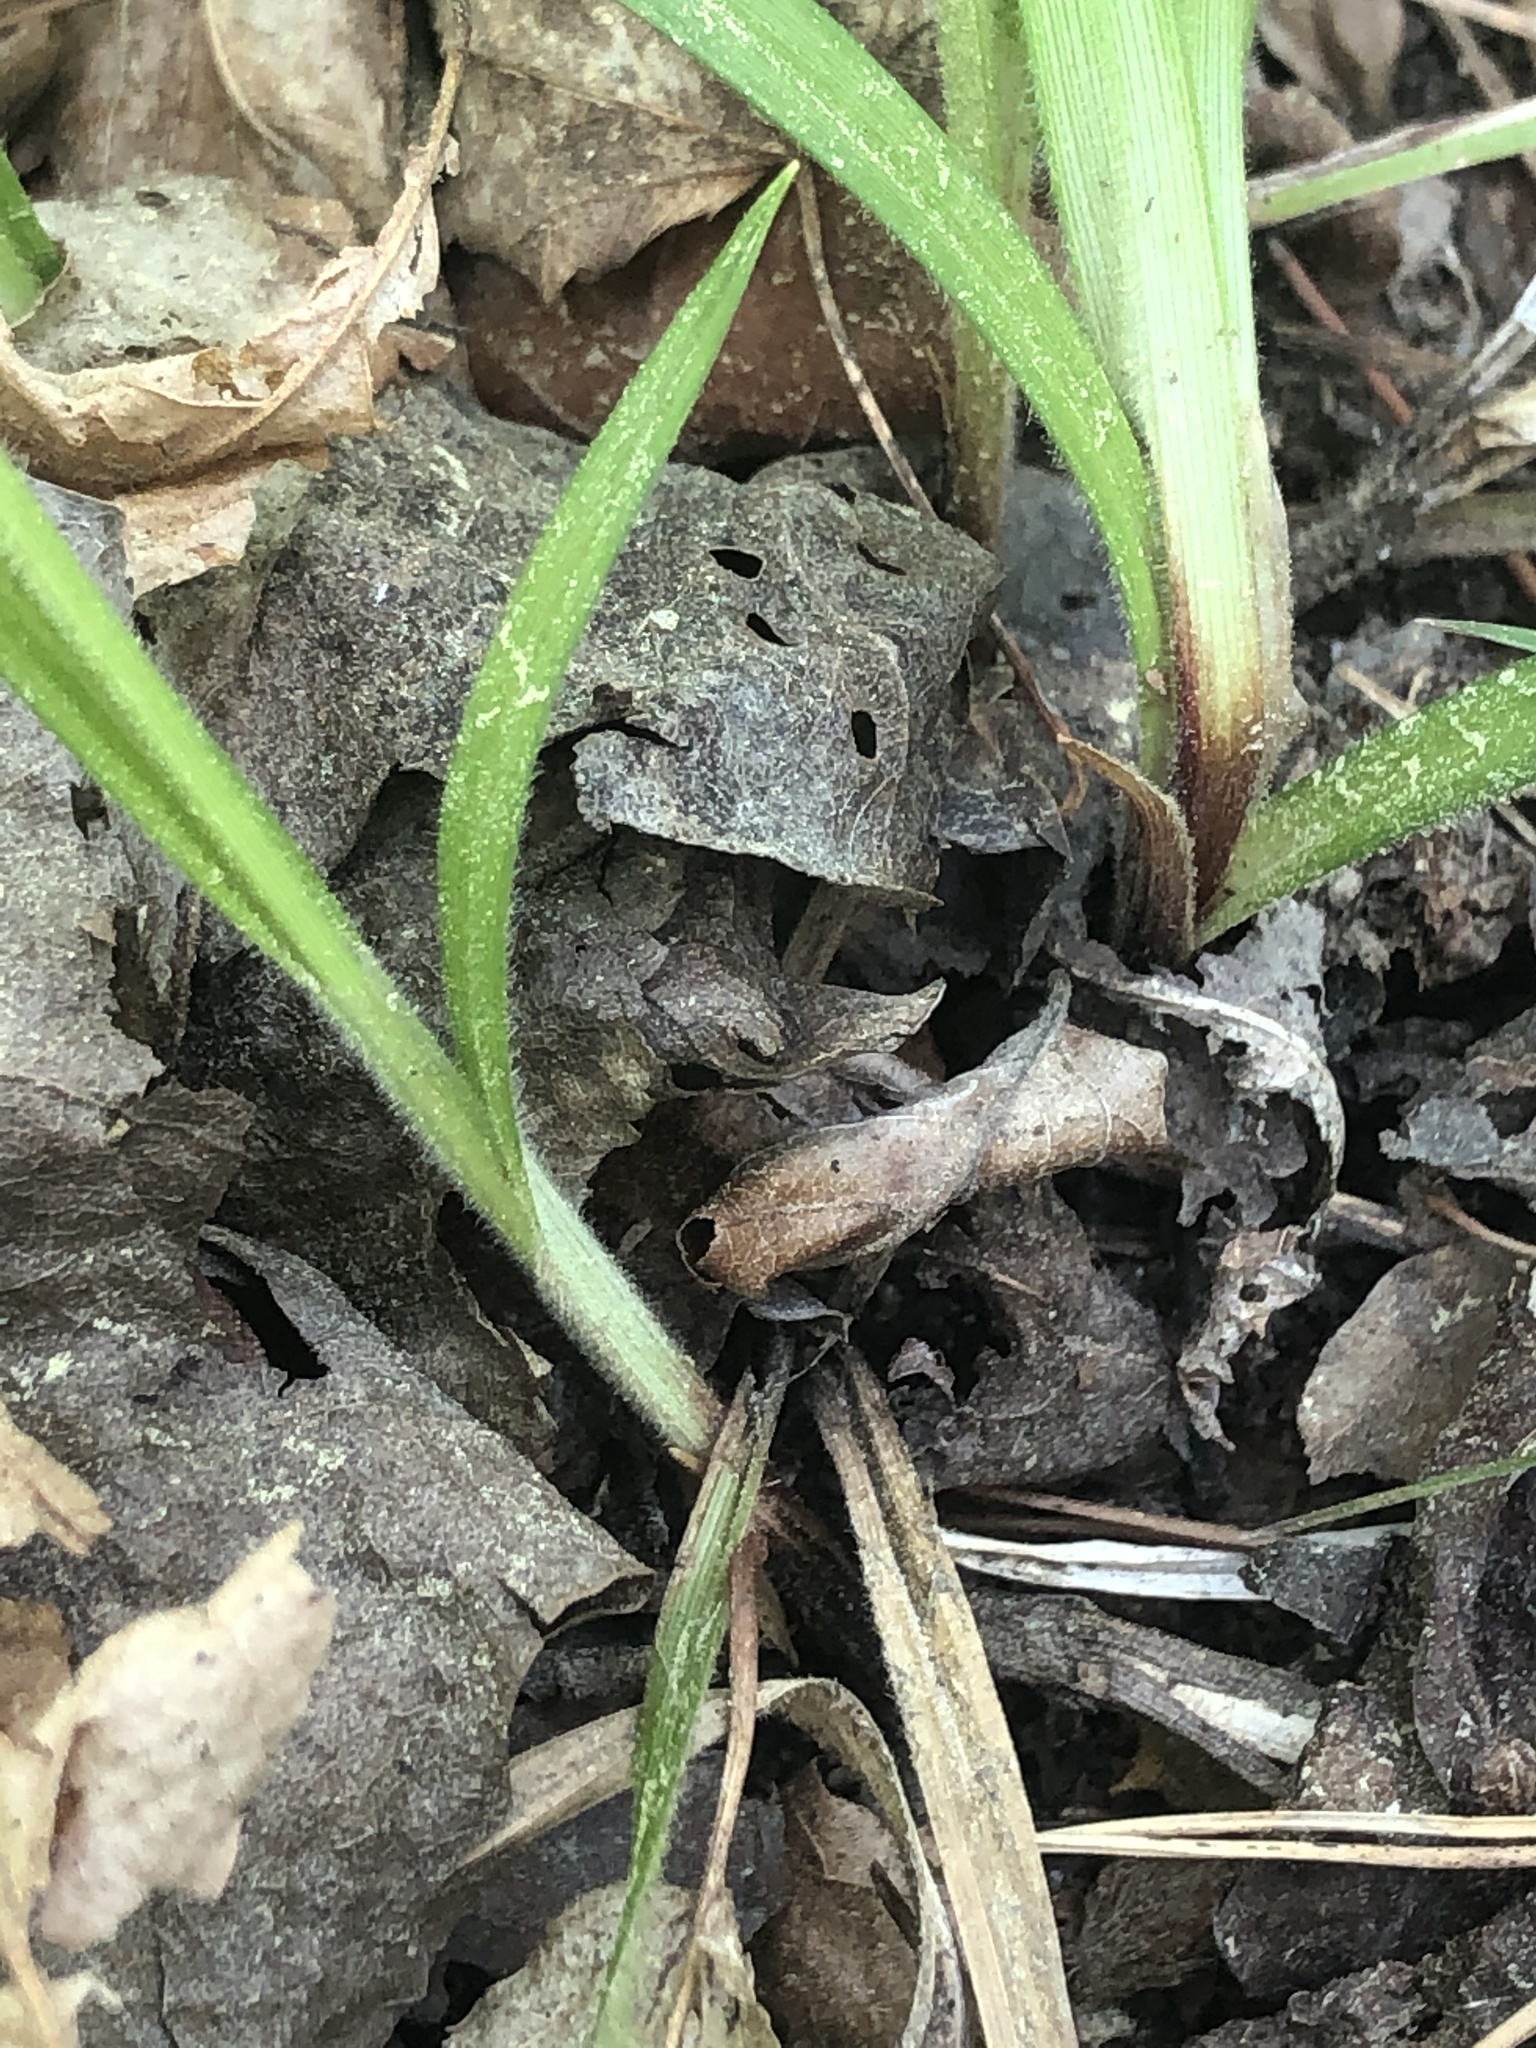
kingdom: Plantae
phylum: Tracheophyta
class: Liliopsida
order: Poales
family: Cyperaceae
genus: Carex
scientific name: Carex oxylepis
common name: Sharpscale sedge
